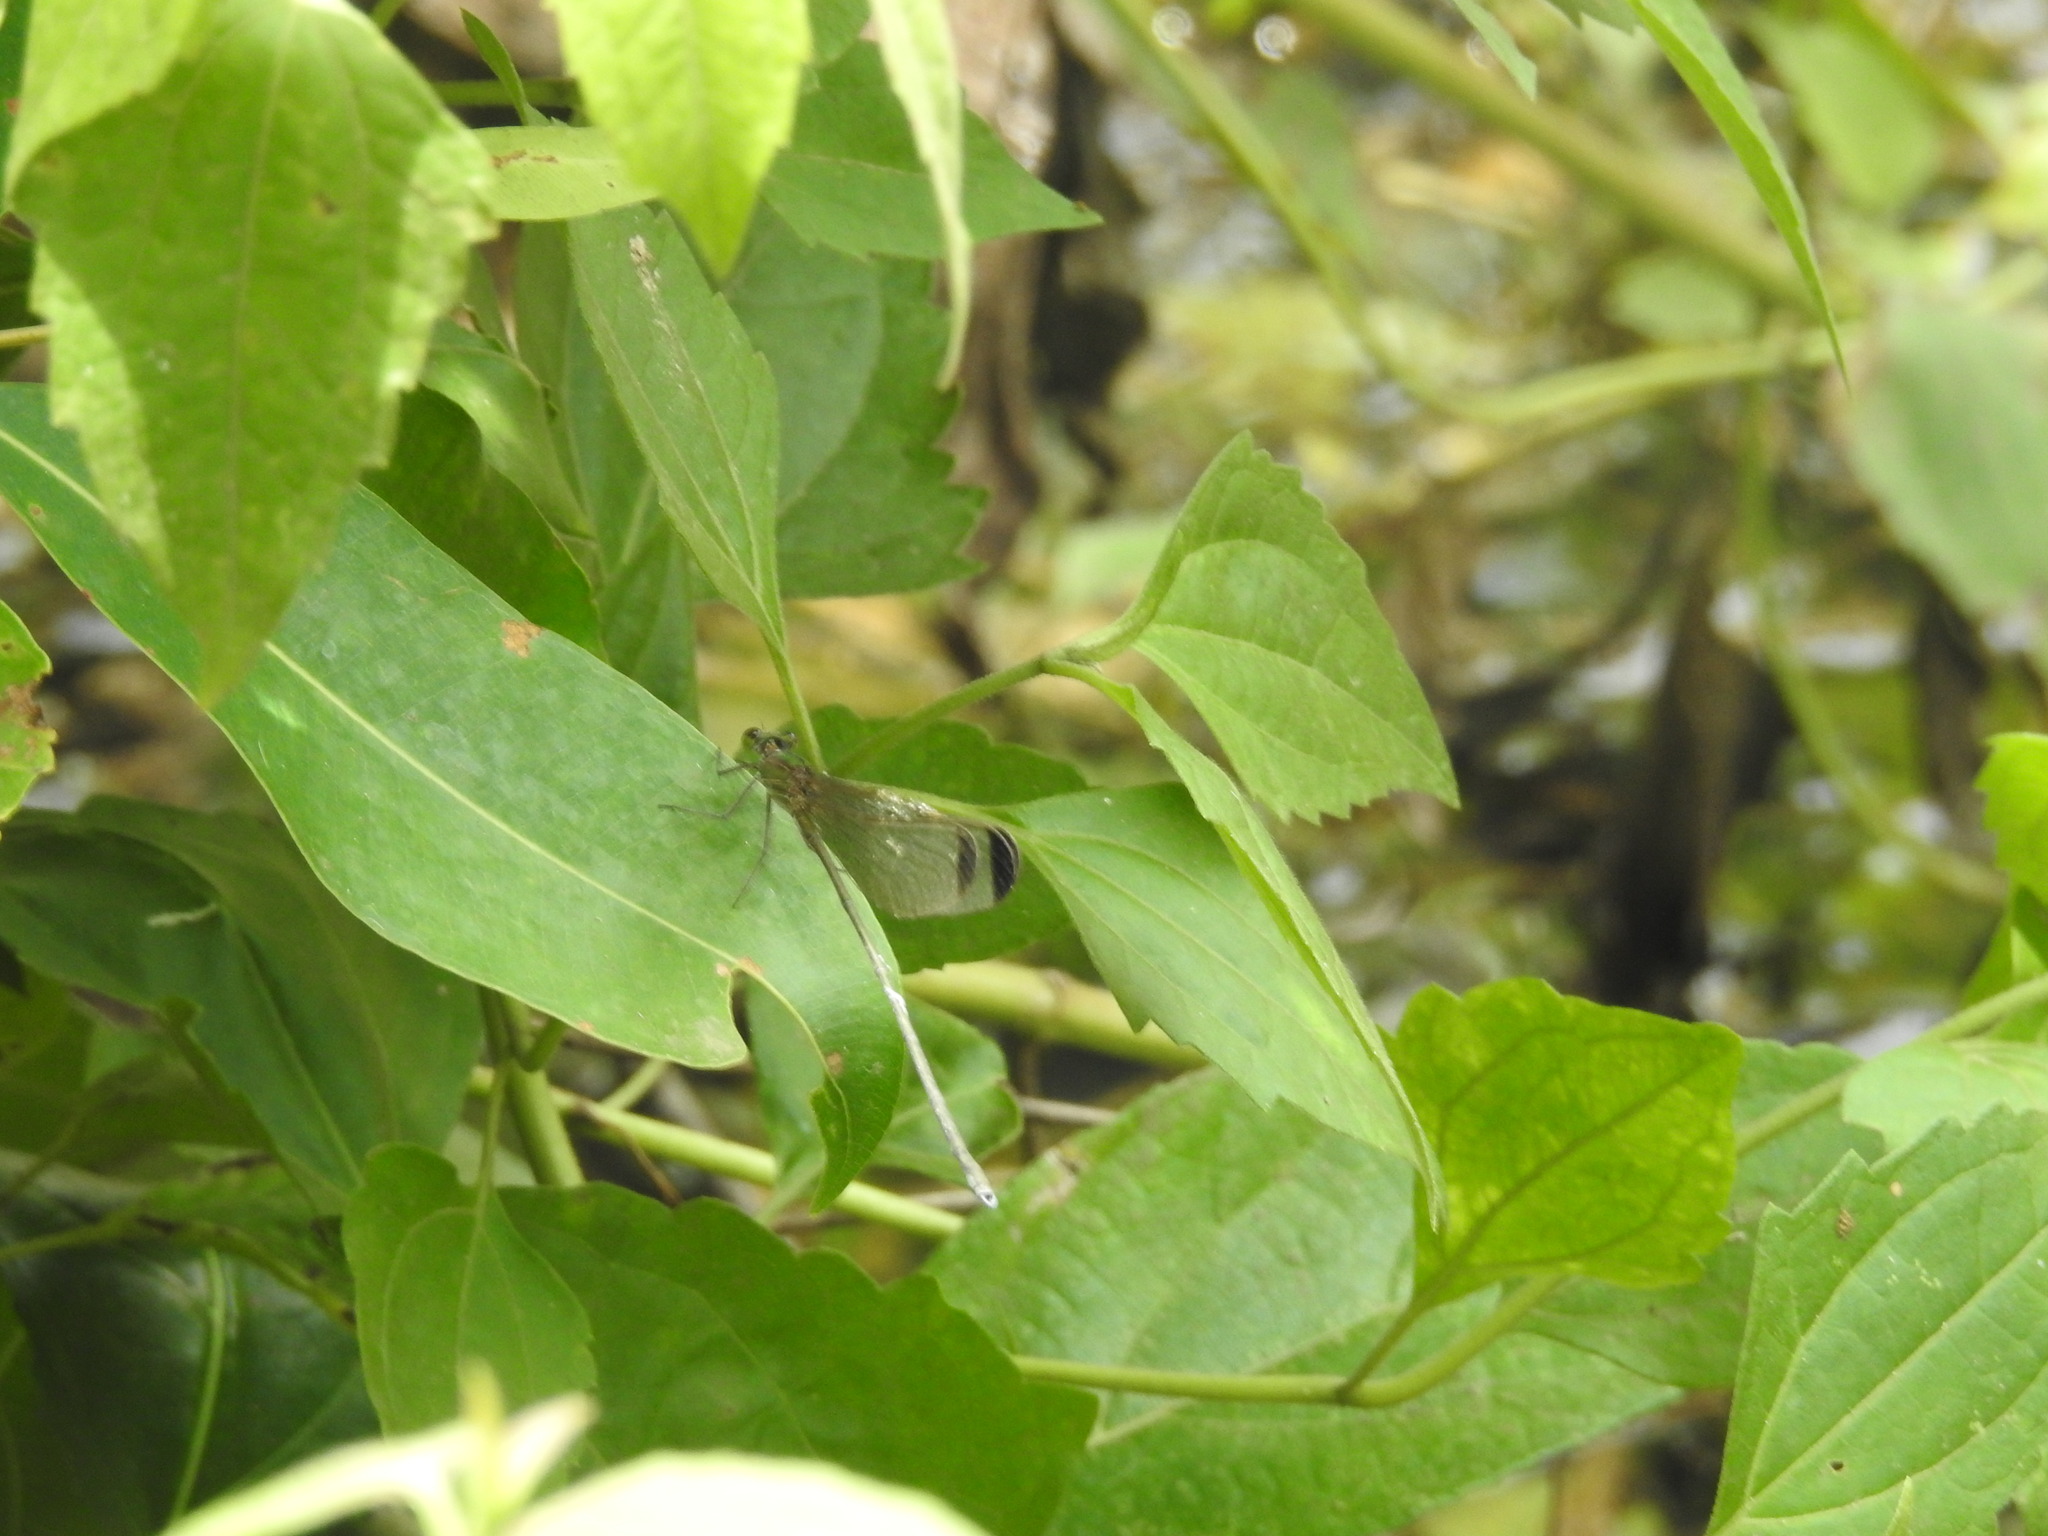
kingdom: Animalia
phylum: Arthropoda
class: Insecta
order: Odonata
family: Calopterygidae
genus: Vestalis
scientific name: Vestalis apicalis
